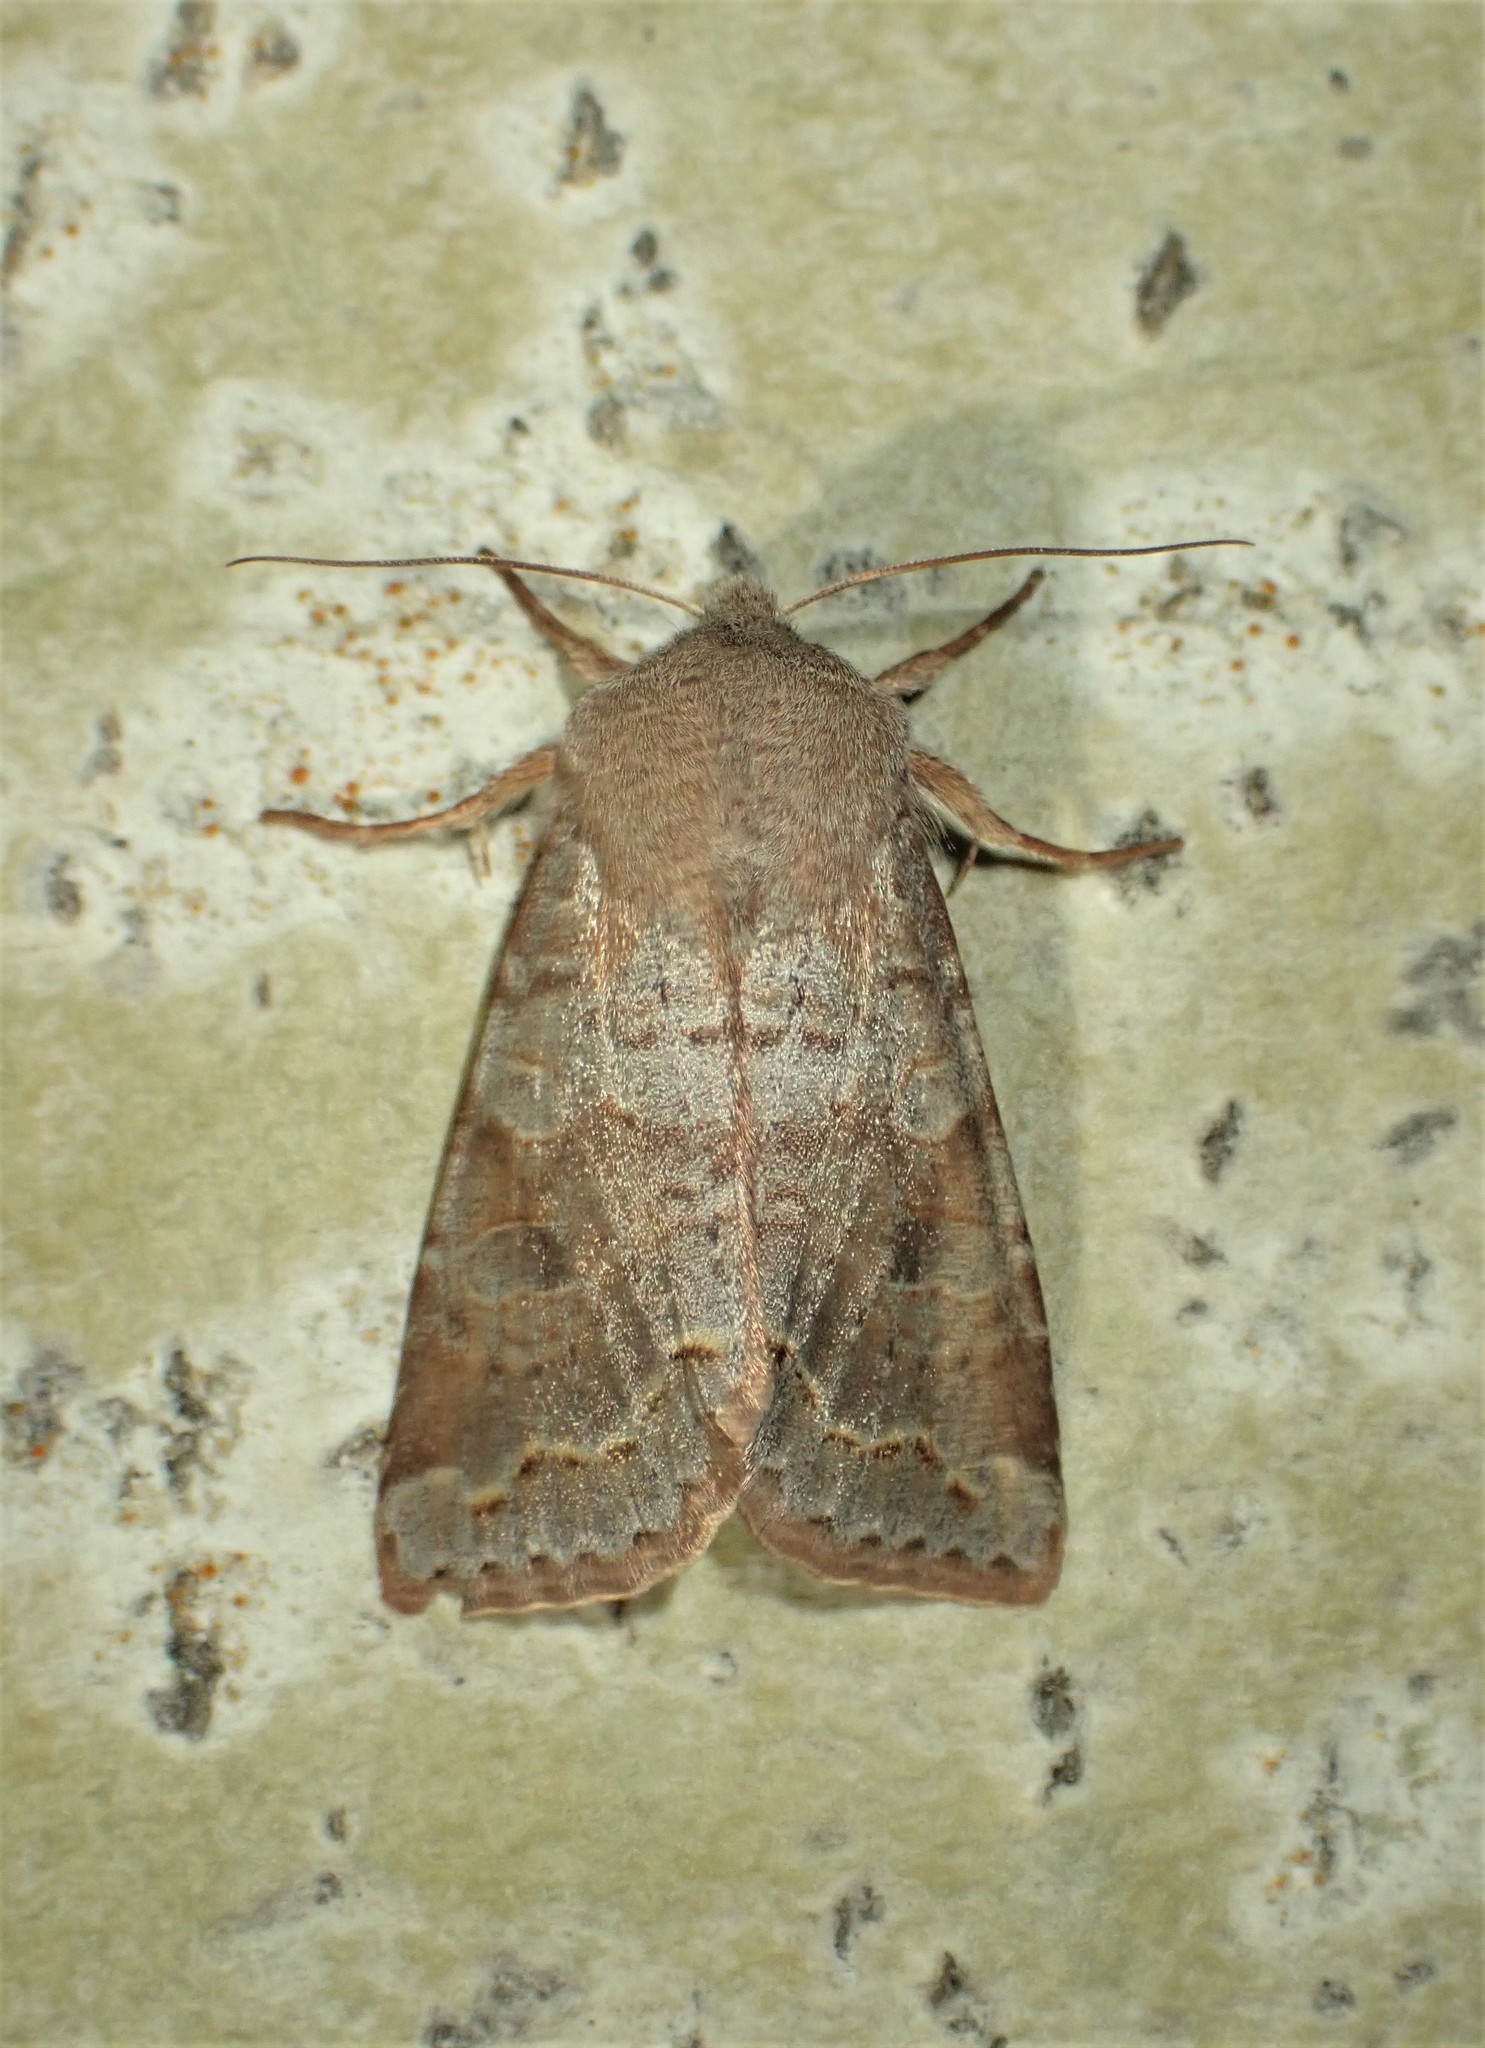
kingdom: Animalia
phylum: Arthropoda
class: Insecta
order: Lepidoptera
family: Noctuidae
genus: Orthosia
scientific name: Orthosia revicta
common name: Rusty whitesided caterpillar
